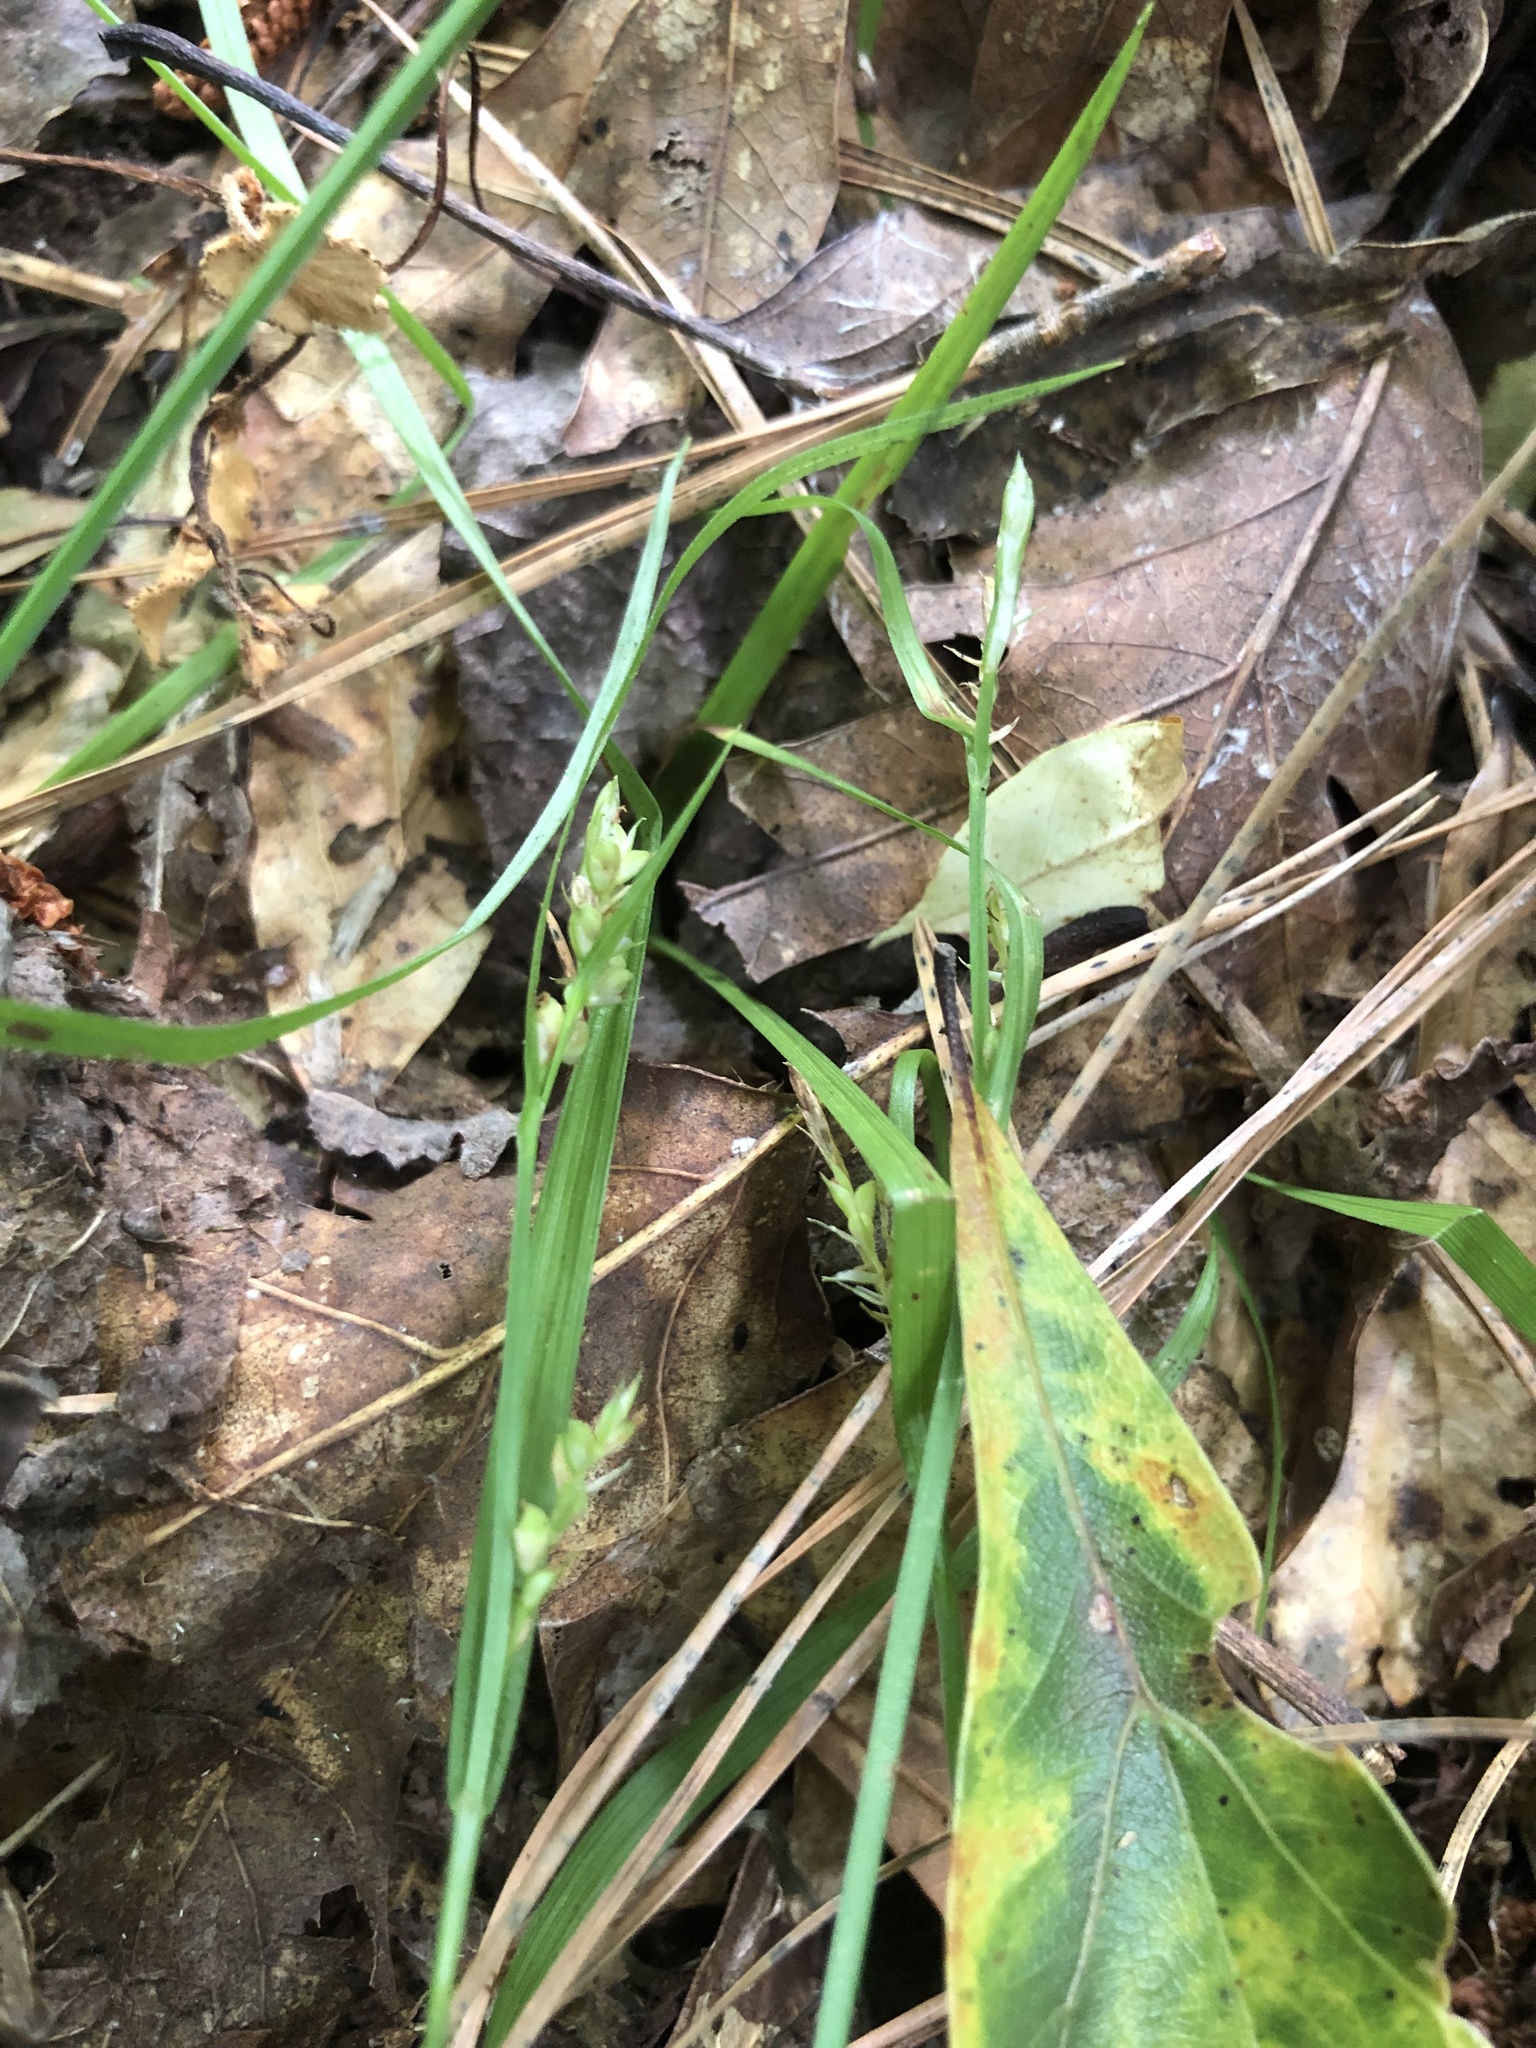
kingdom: Plantae
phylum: Tracheophyta
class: Liliopsida
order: Poales
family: Cyperaceae
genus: Carex
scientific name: Carex blanda
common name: Bland sedge
